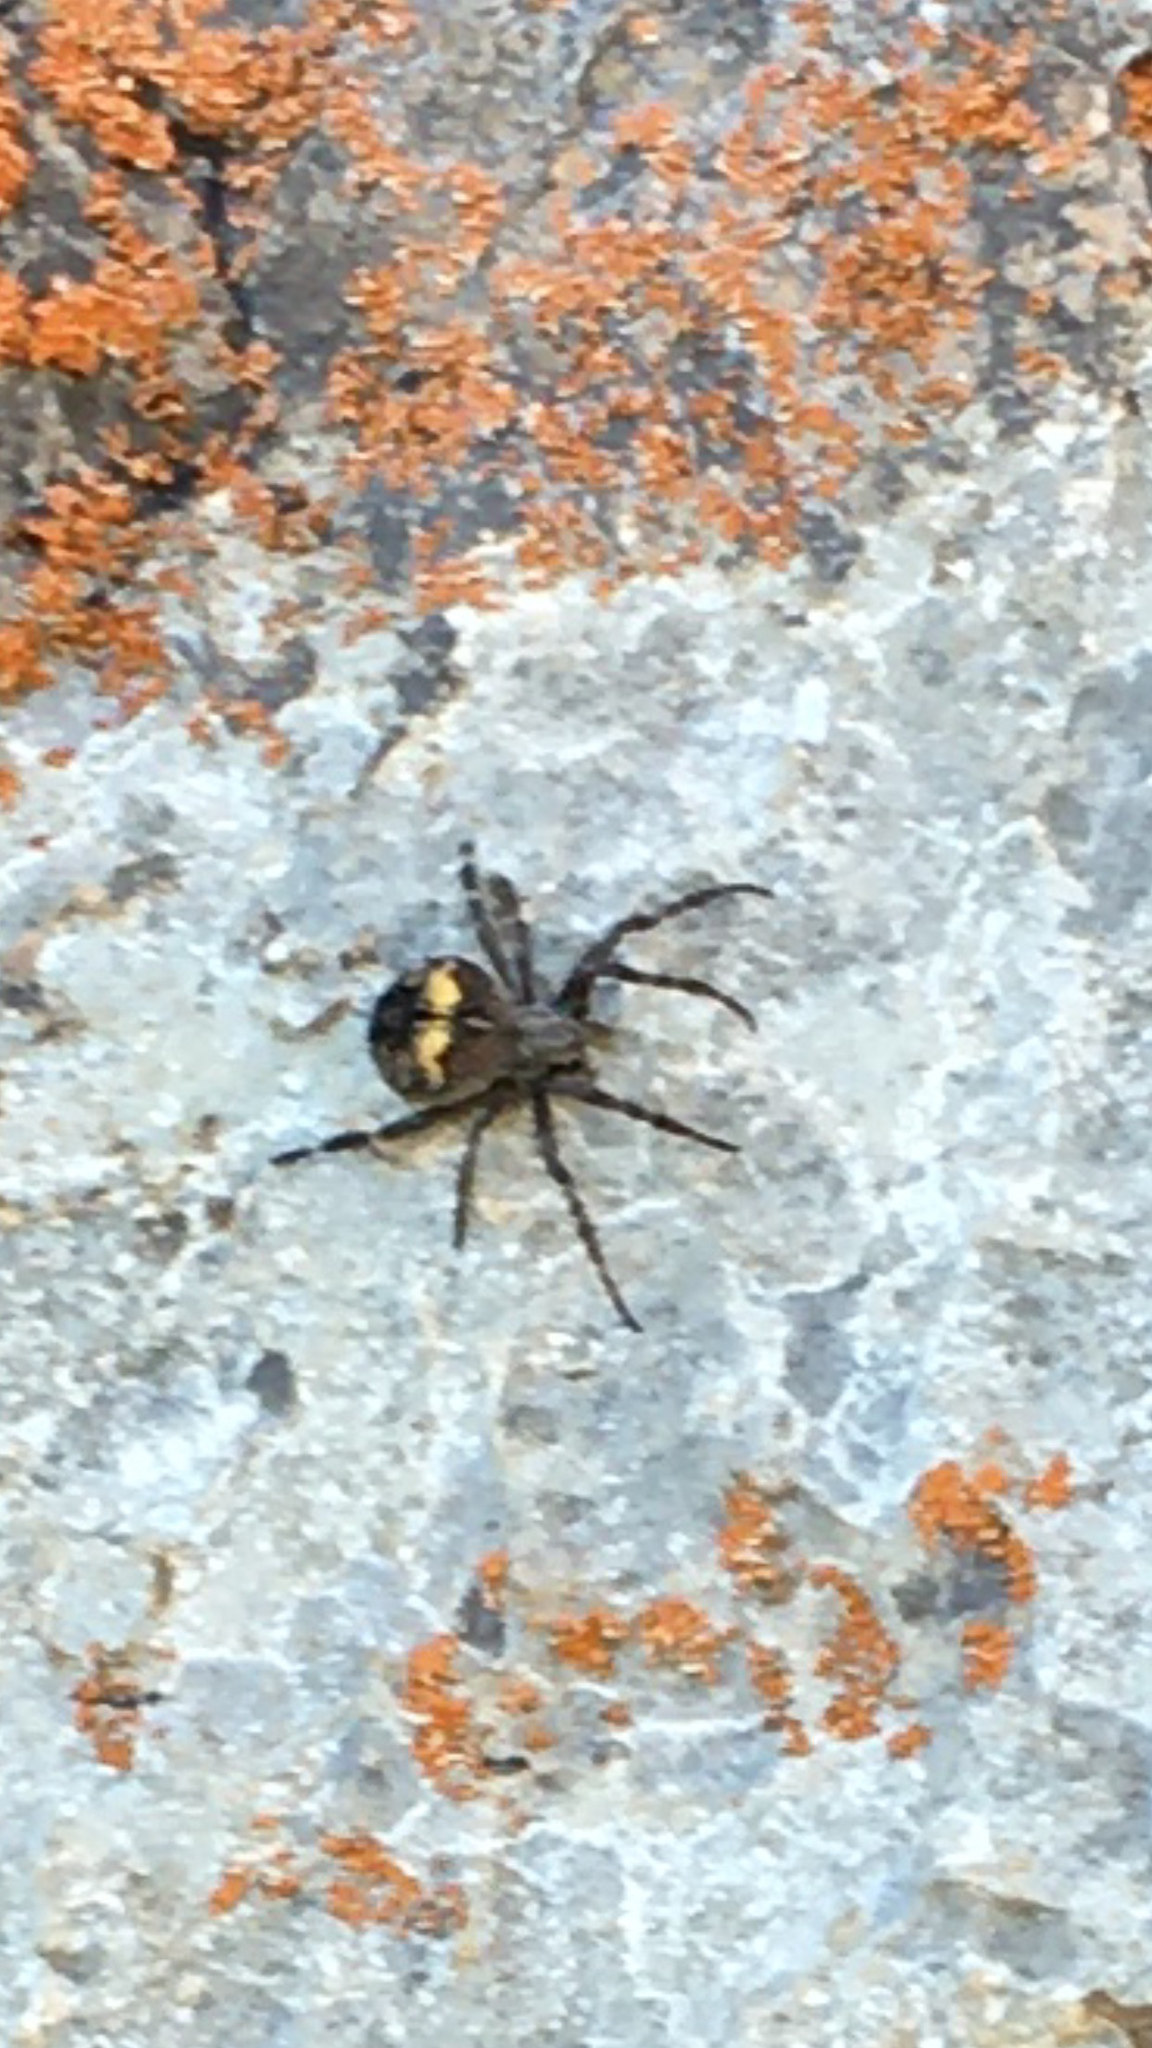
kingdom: Animalia
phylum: Arthropoda
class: Arachnida
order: Araneae
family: Araneidae
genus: Araneus
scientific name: Araneus saevus
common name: Fierce orbweaver
